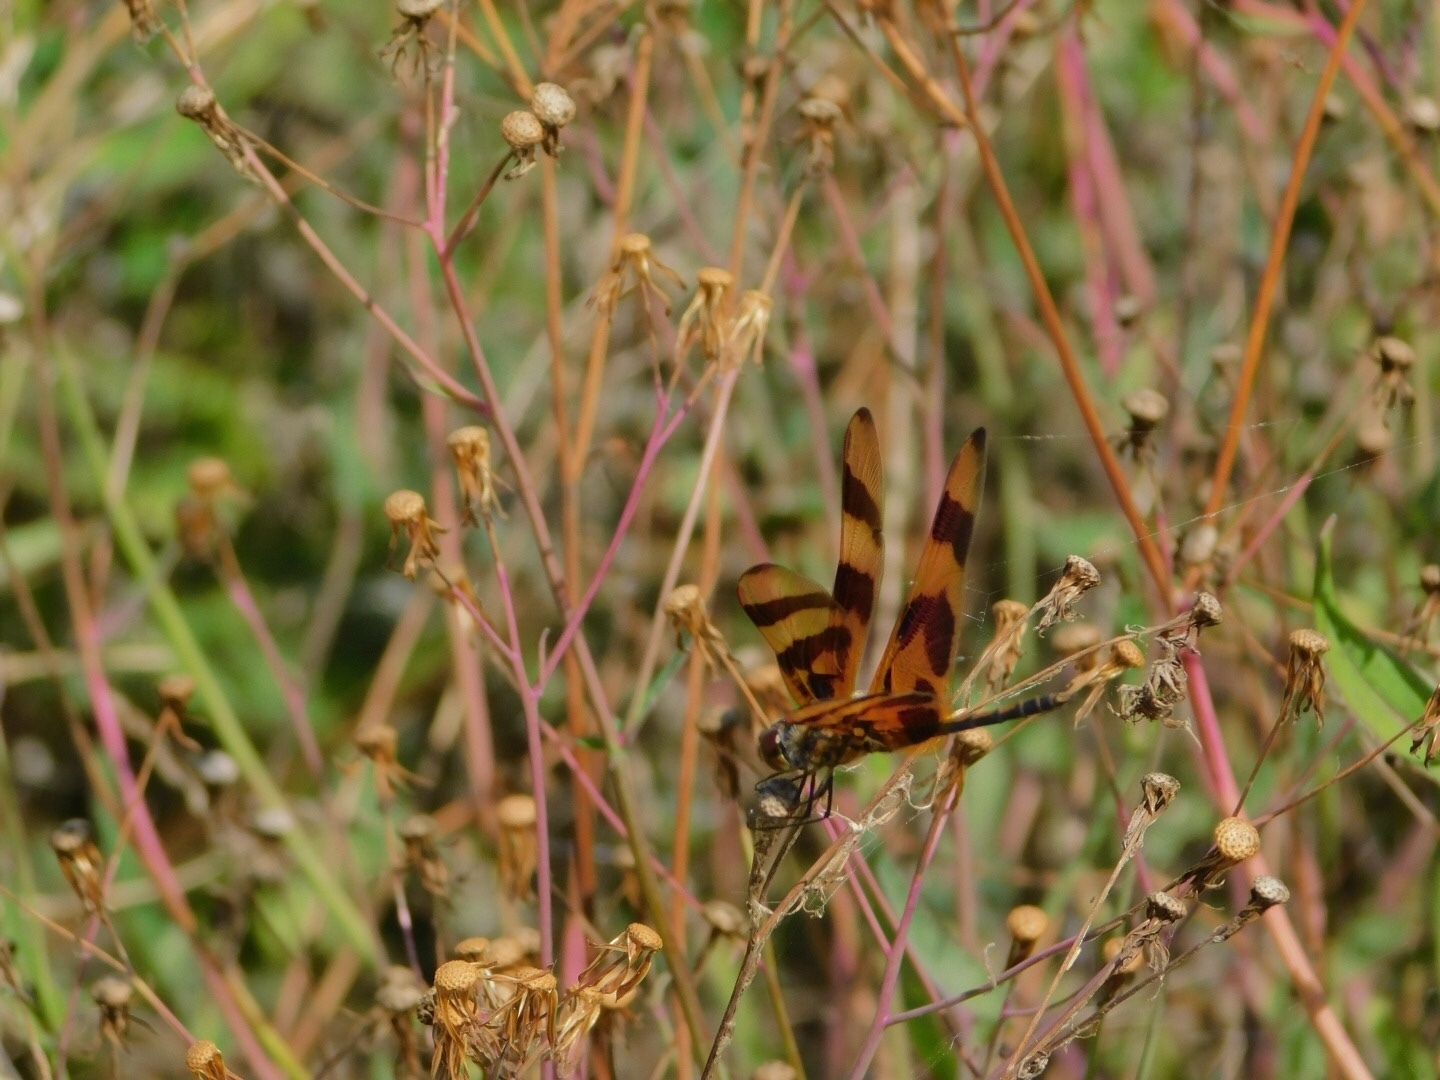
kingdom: Animalia
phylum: Arthropoda
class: Insecta
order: Odonata
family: Libellulidae
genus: Celithemis
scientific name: Celithemis eponina
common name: Halloween pennant
